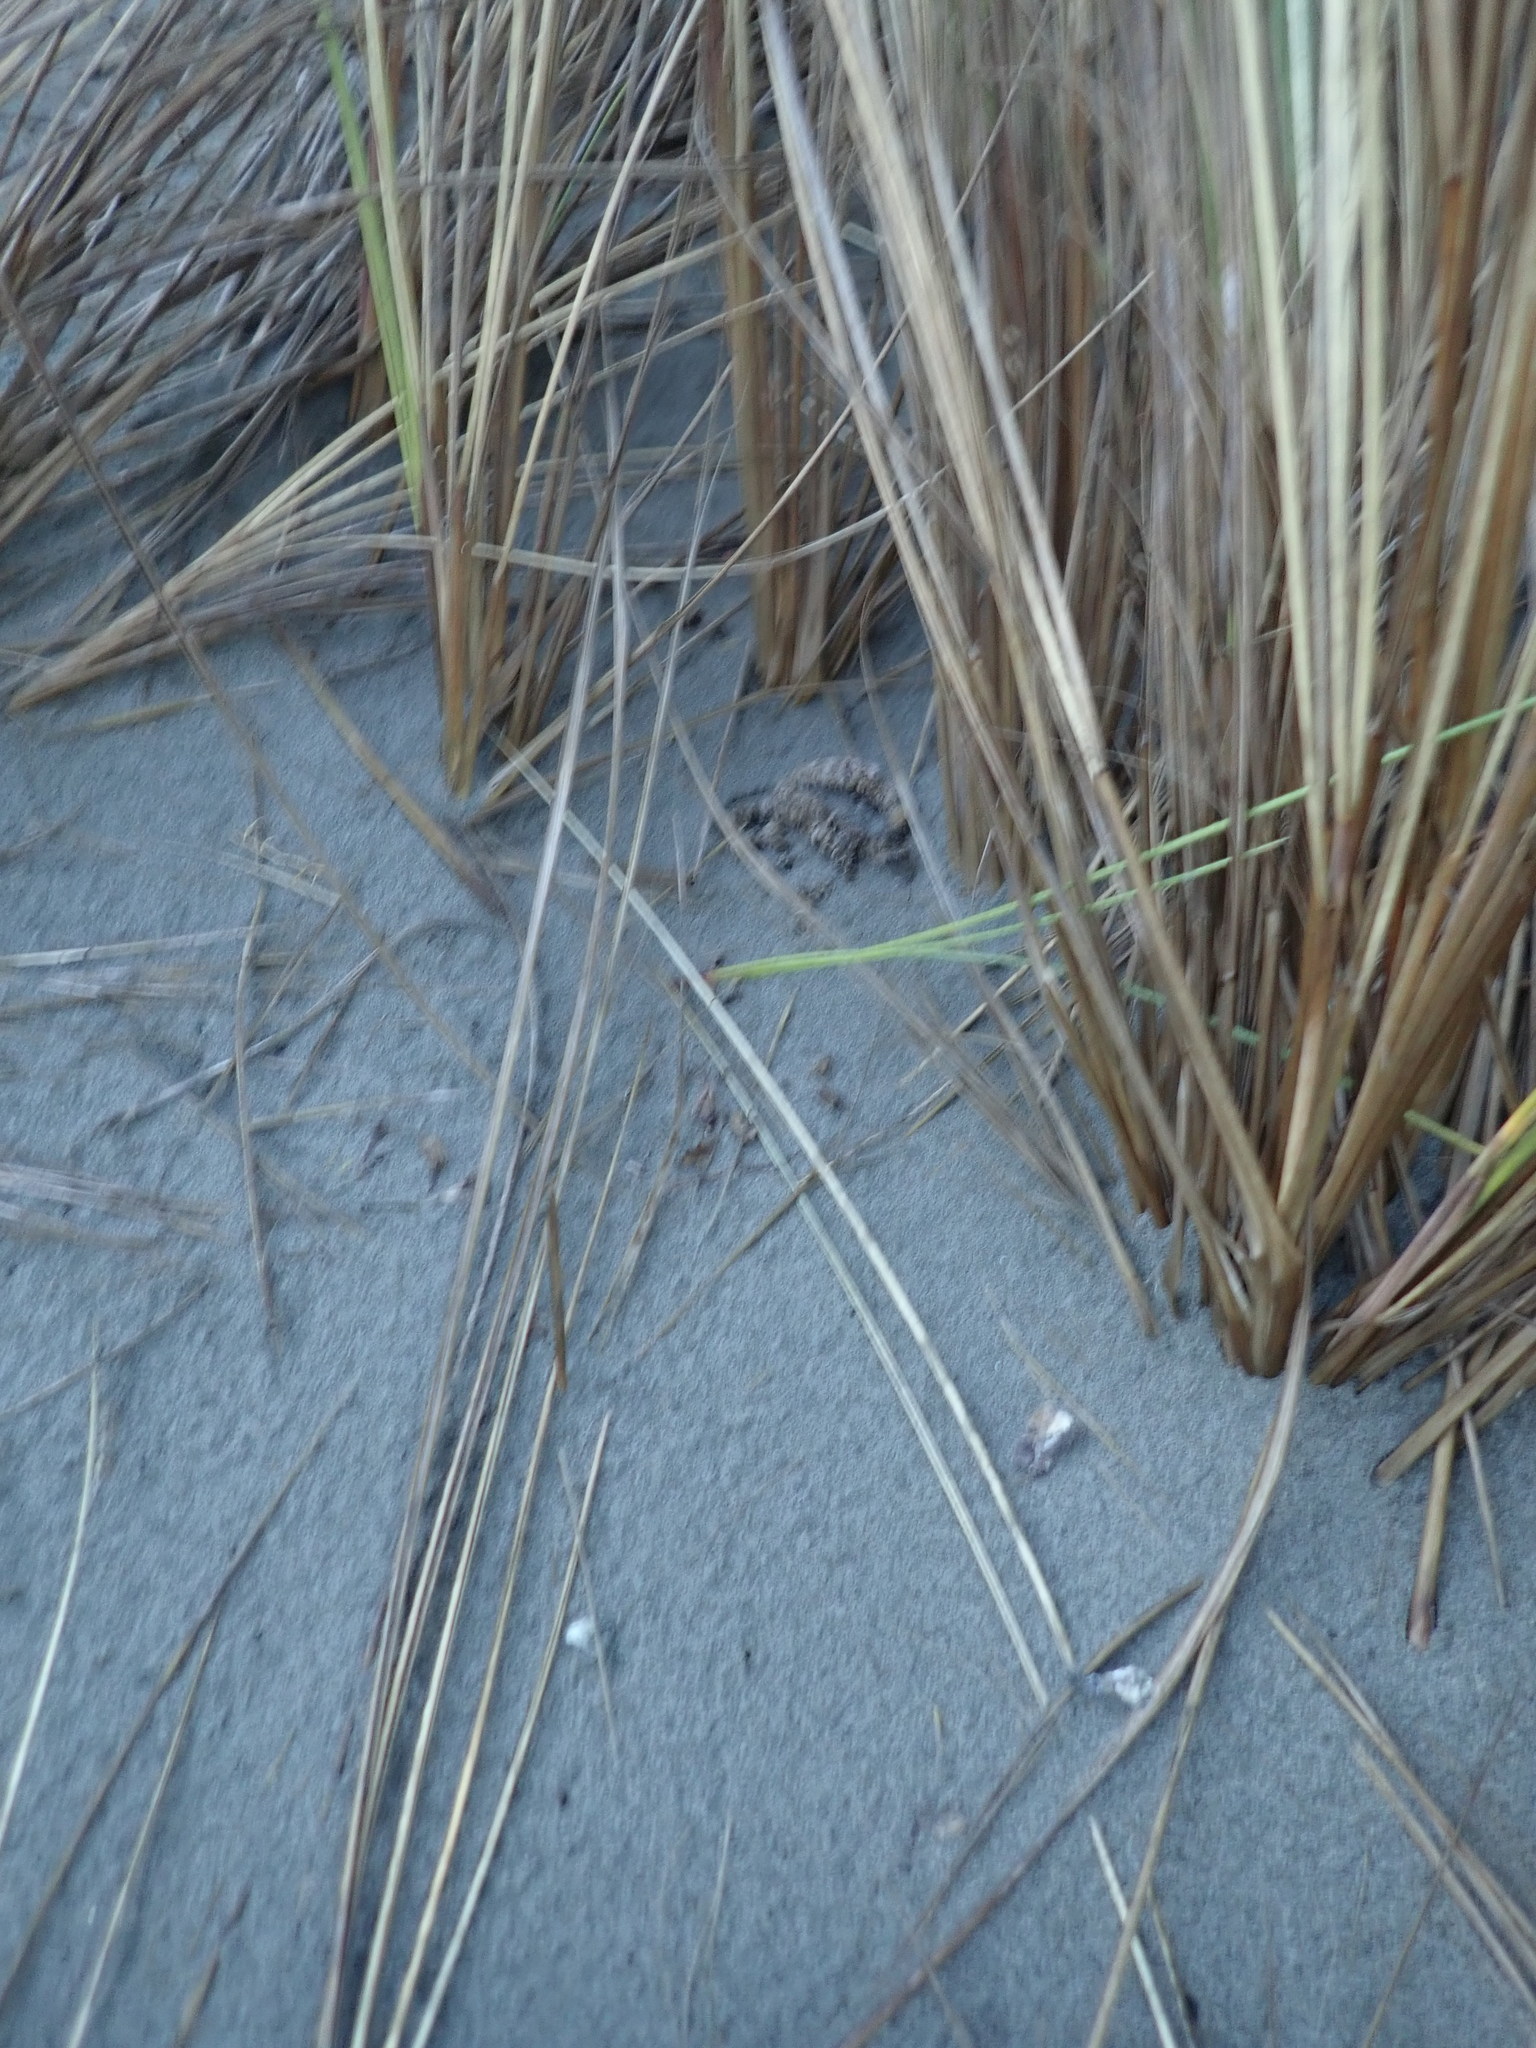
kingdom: Fungi
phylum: Basidiomycota
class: Agaricomycetes
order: Phallales
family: Phallaceae
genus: Ileodictyon
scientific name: Ileodictyon cibarium
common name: Basket fungus
